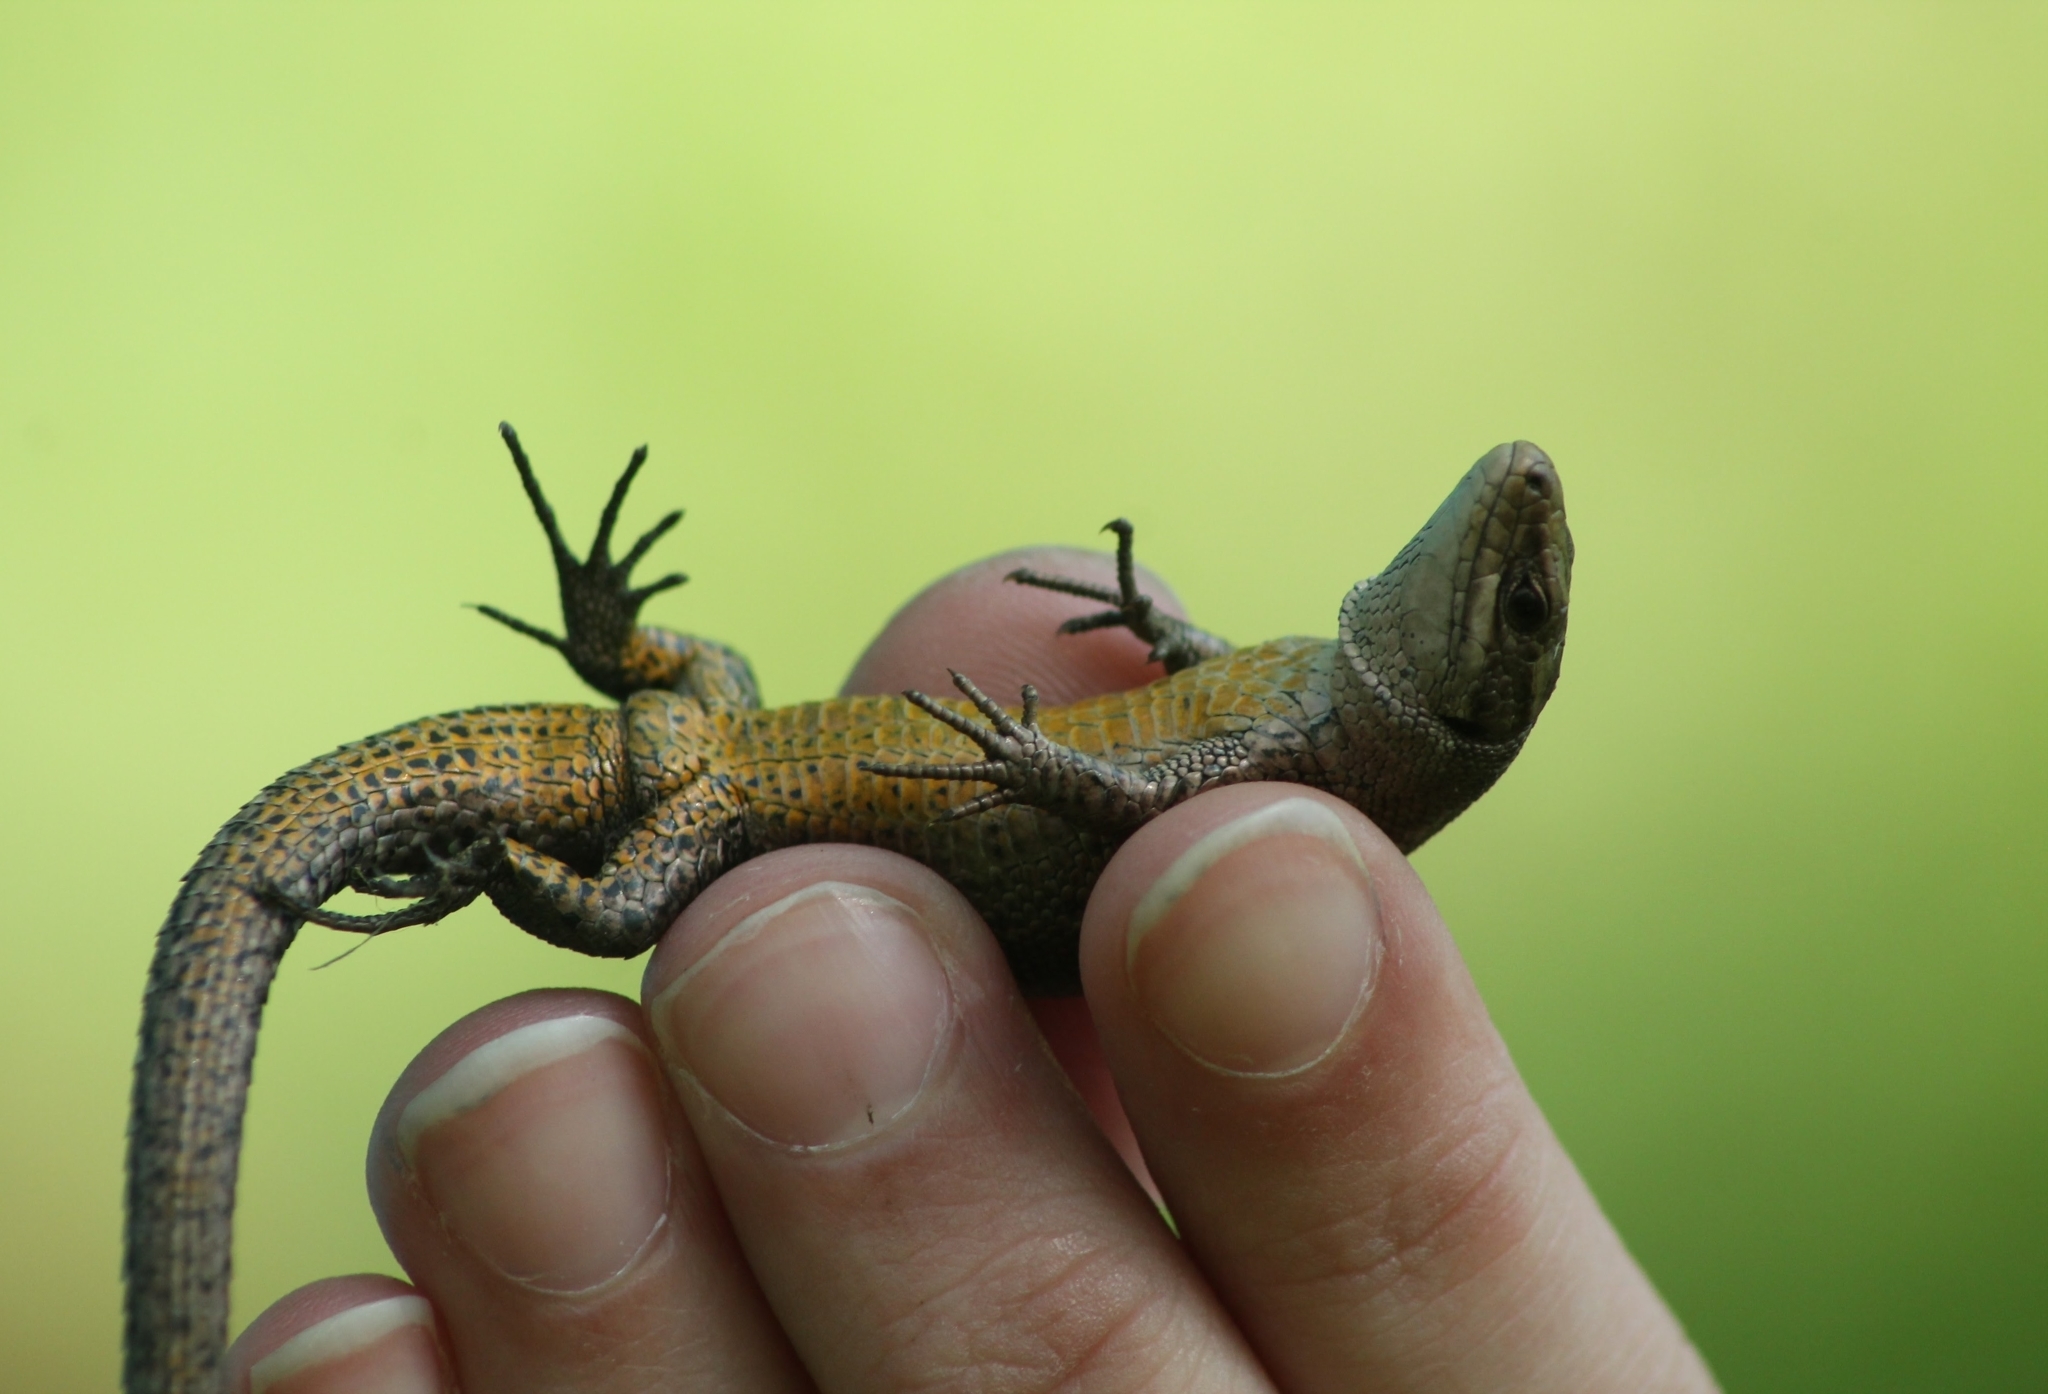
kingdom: Animalia
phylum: Chordata
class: Squamata
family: Lacertidae
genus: Zootoca
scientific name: Zootoca vivipara
